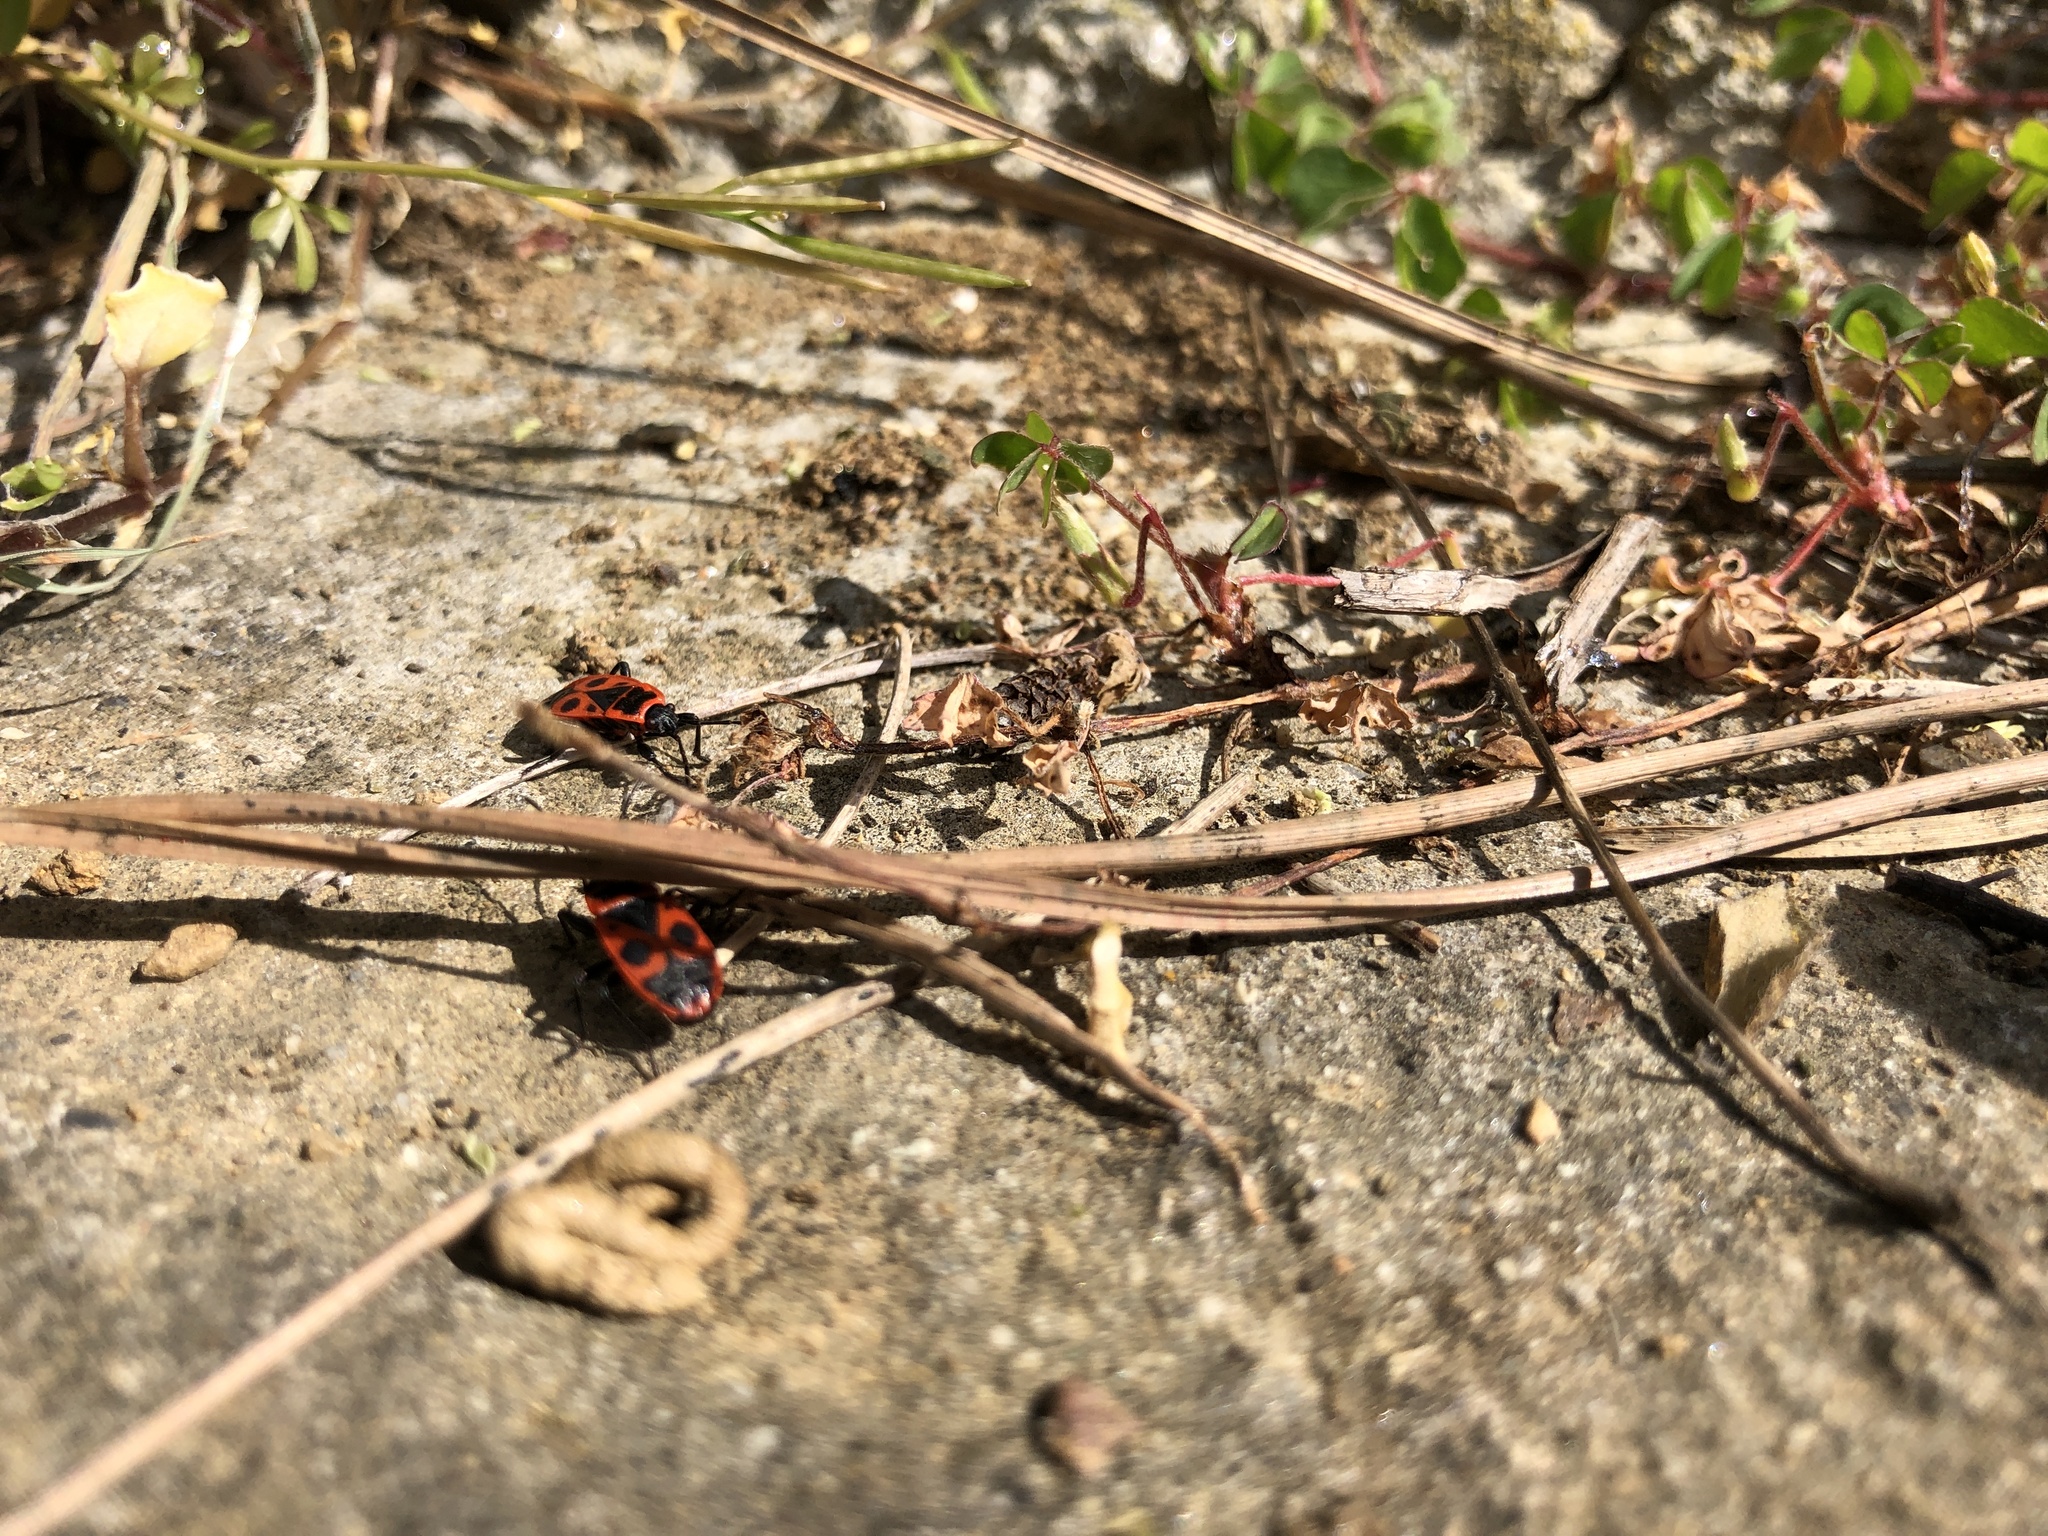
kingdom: Animalia
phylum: Arthropoda
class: Insecta
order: Hemiptera
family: Pyrrhocoridae
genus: Pyrrhocoris
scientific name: Pyrrhocoris apterus
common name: Firebug
